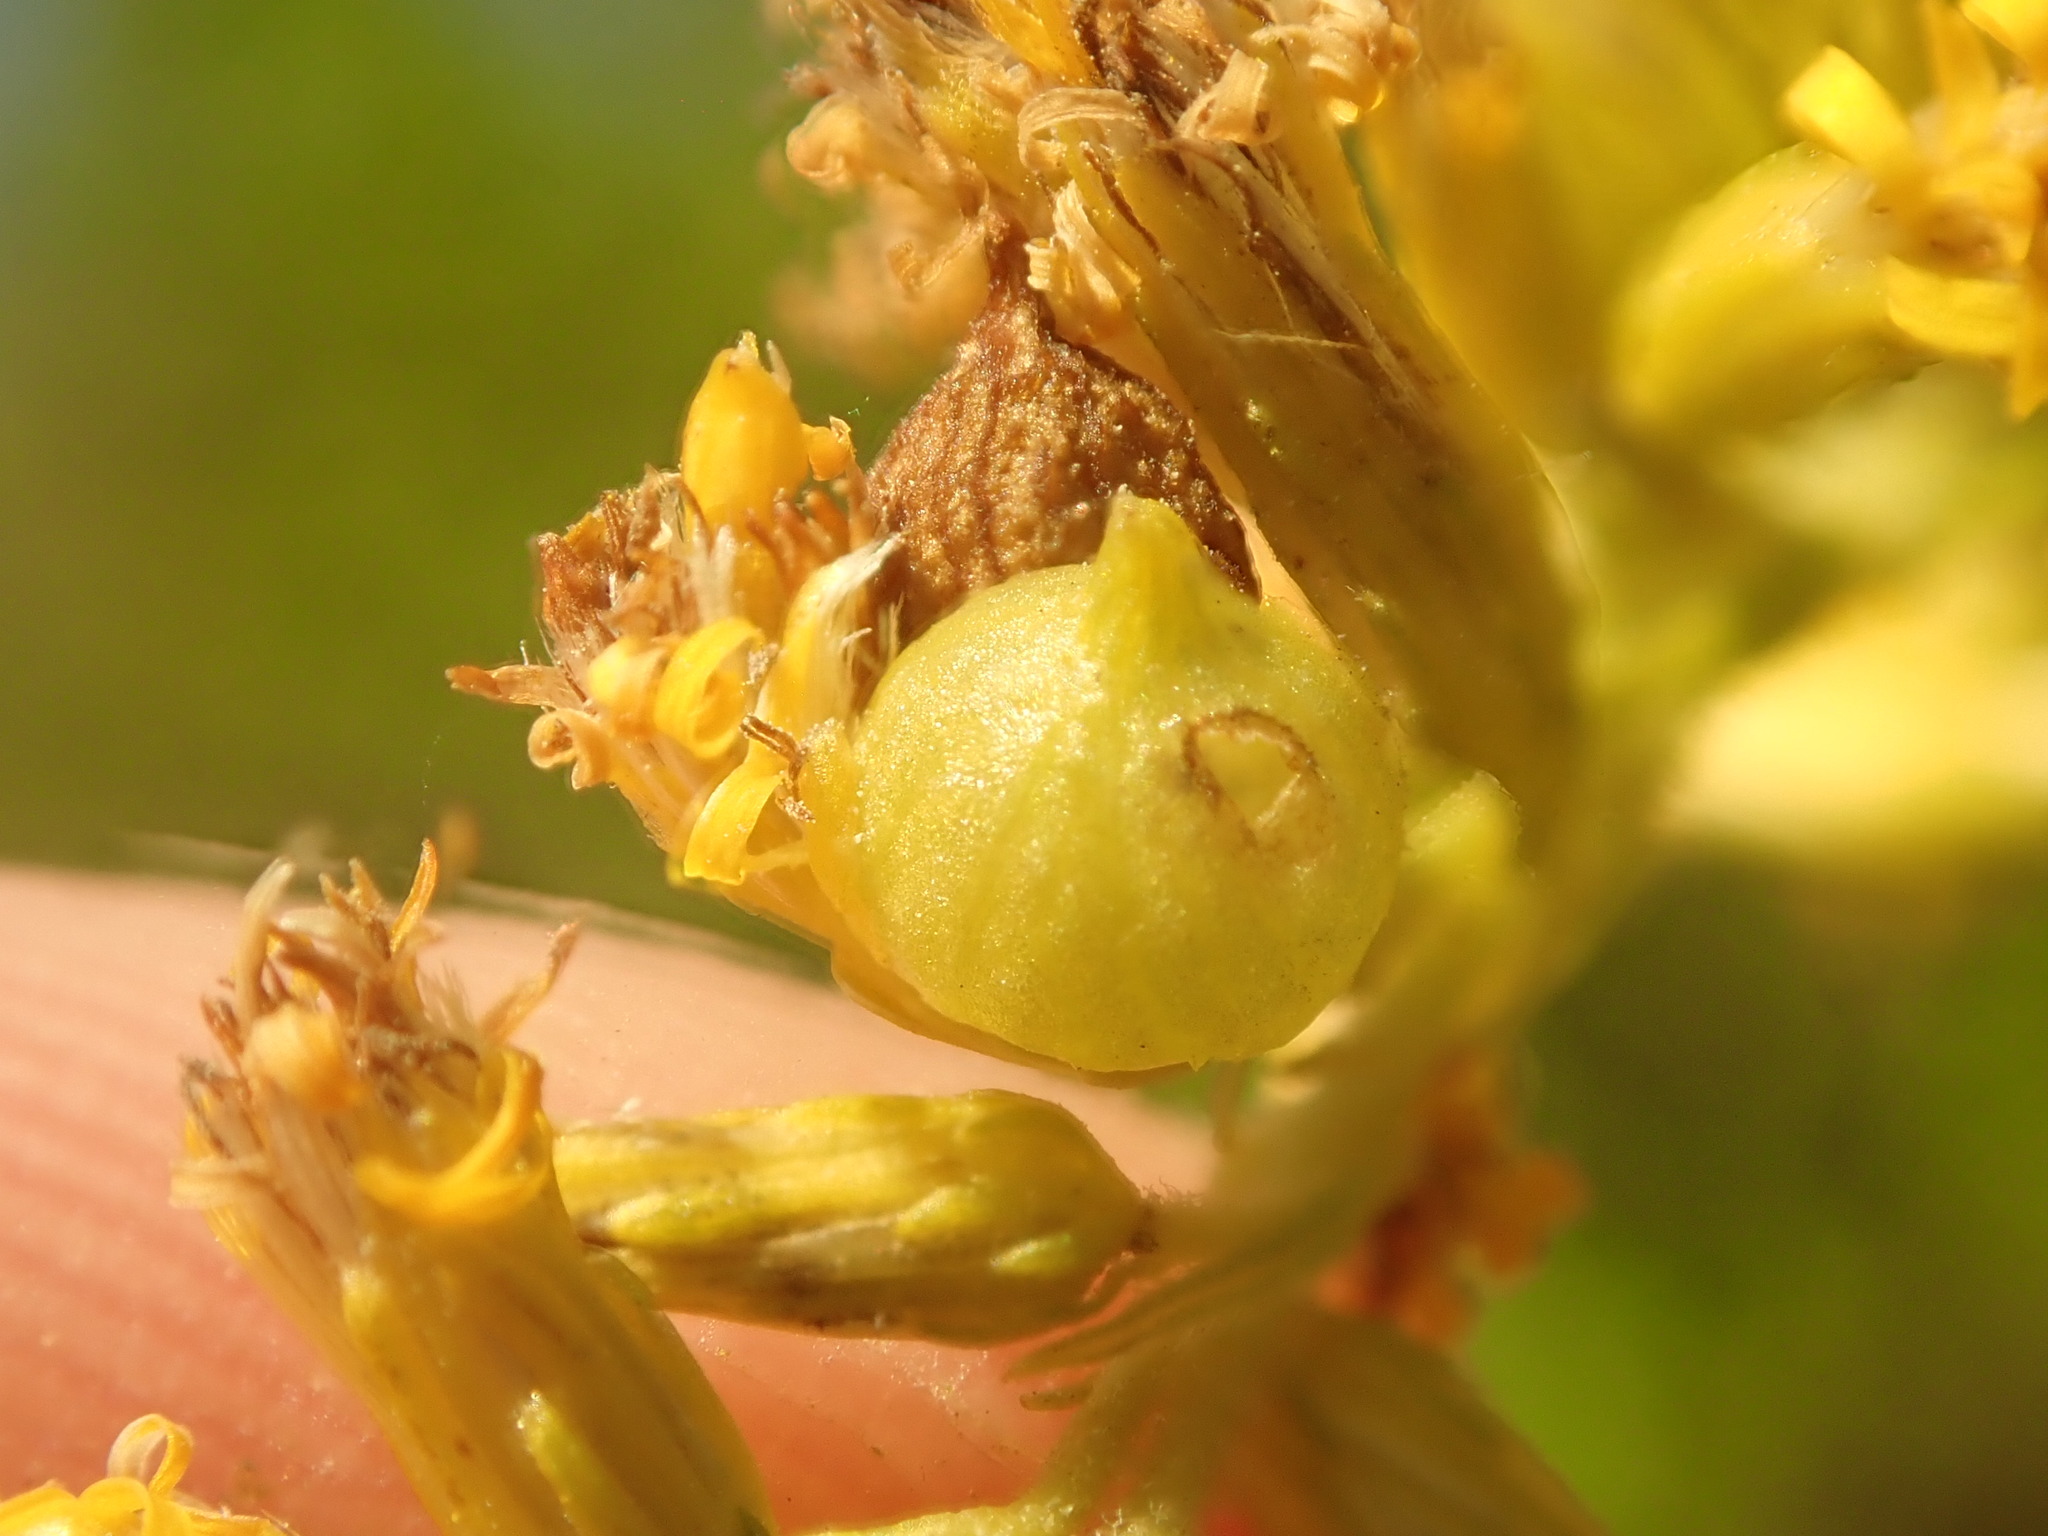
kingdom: Animalia
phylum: Arthropoda
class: Insecta
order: Diptera
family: Cecidomyiidae
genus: Schizomyia
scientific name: Schizomyia racemicola
